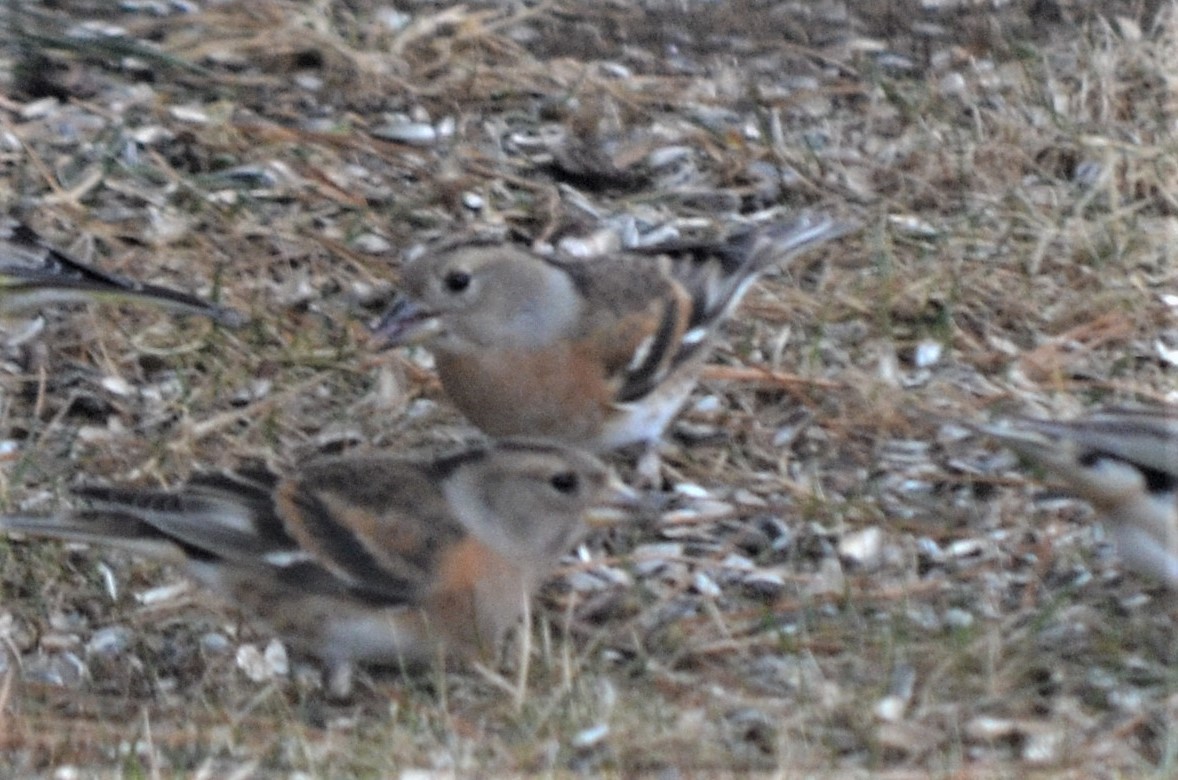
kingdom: Animalia
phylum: Chordata
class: Aves
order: Passeriformes
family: Fringillidae
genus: Fringilla
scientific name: Fringilla montifringilla
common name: Brambling
